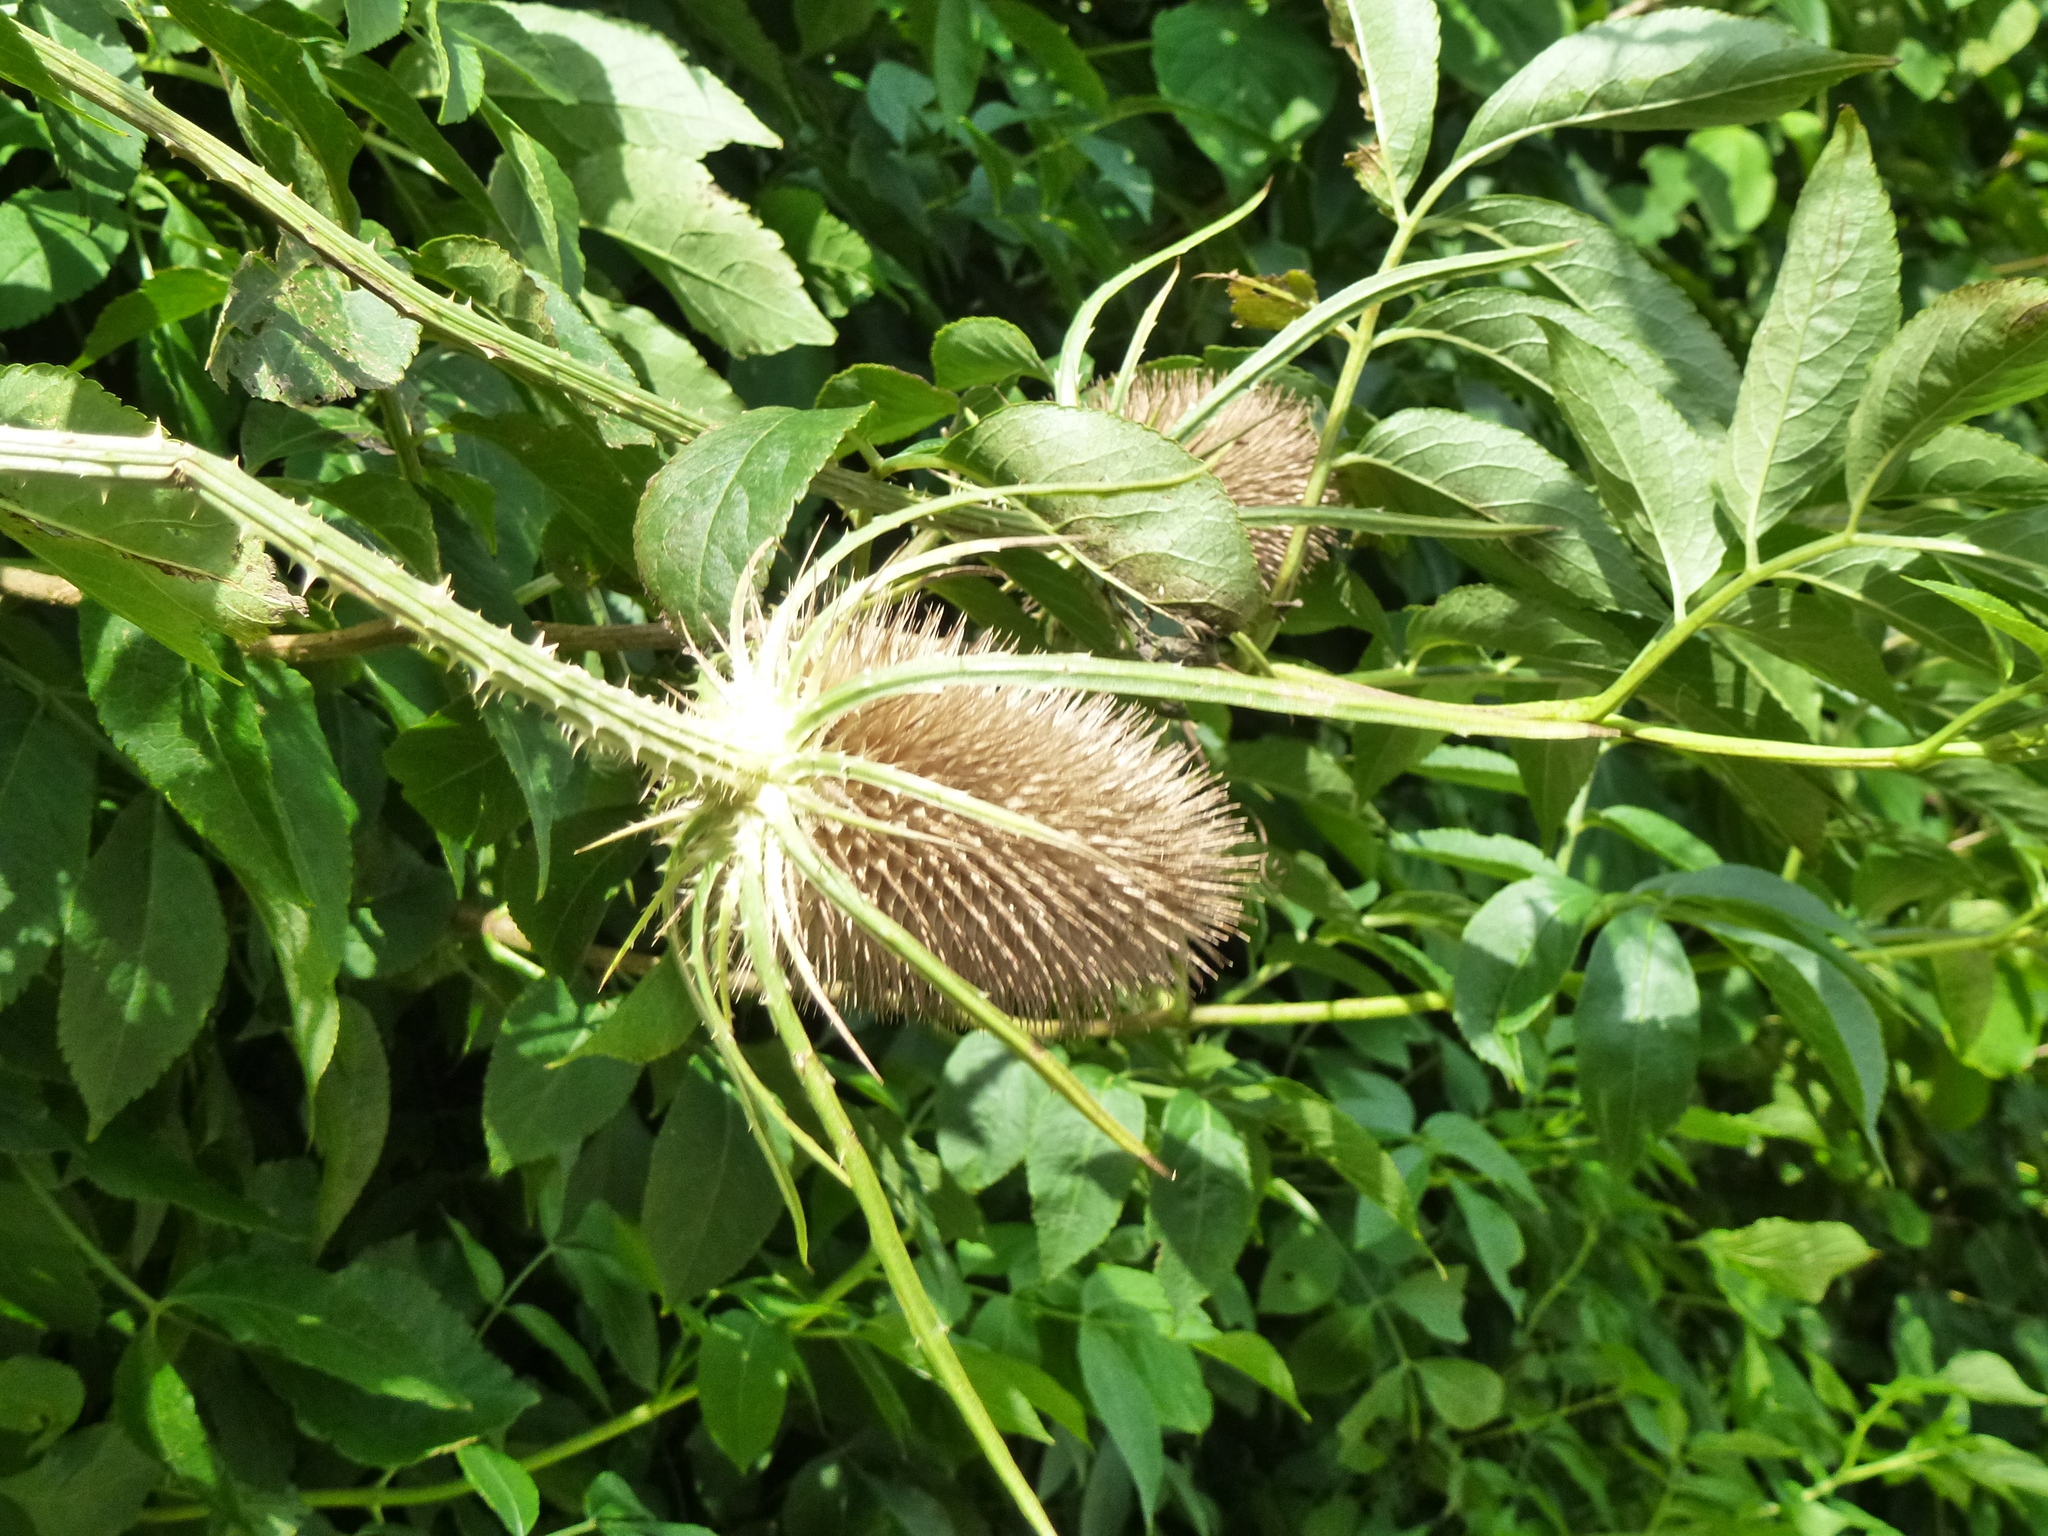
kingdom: Plantae
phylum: Tracheophyta
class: Magnoliopsida
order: Dipsacales
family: Caprifoliaceae
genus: Dipsacus
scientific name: Dipsacus fullonum
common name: Teasel
